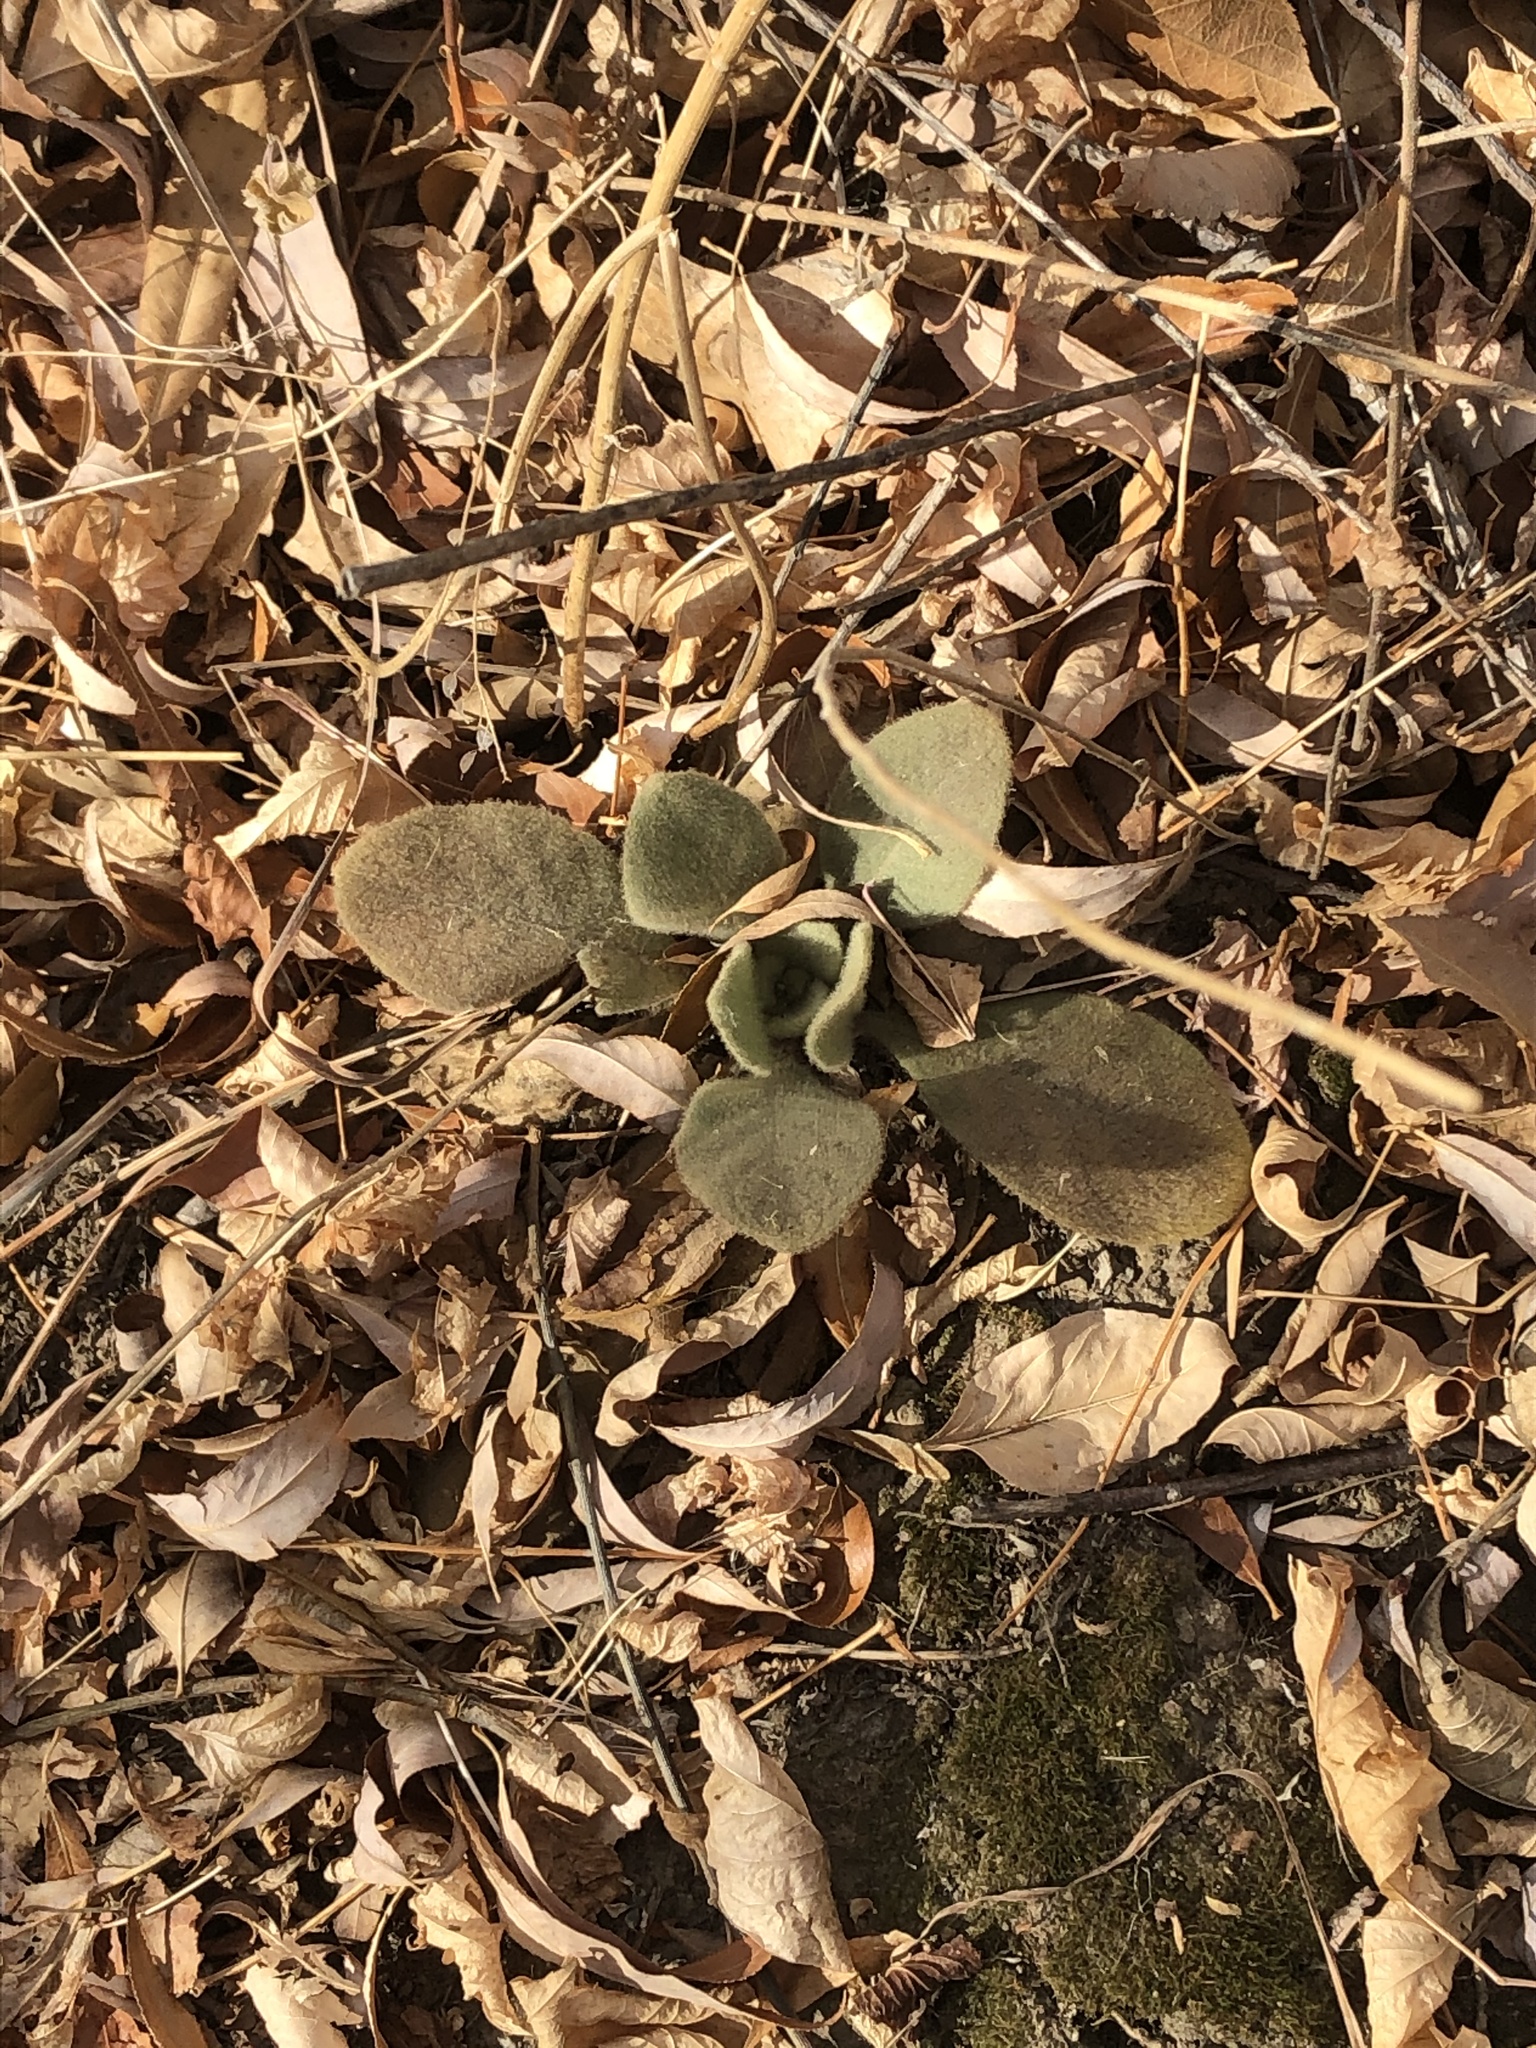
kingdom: Plantae
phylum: Tracheophyta
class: Magnoliopsida
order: Lamiales
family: Scrophulariaceae
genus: Verbascum
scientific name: Verbascum thapsus
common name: Common mullein
